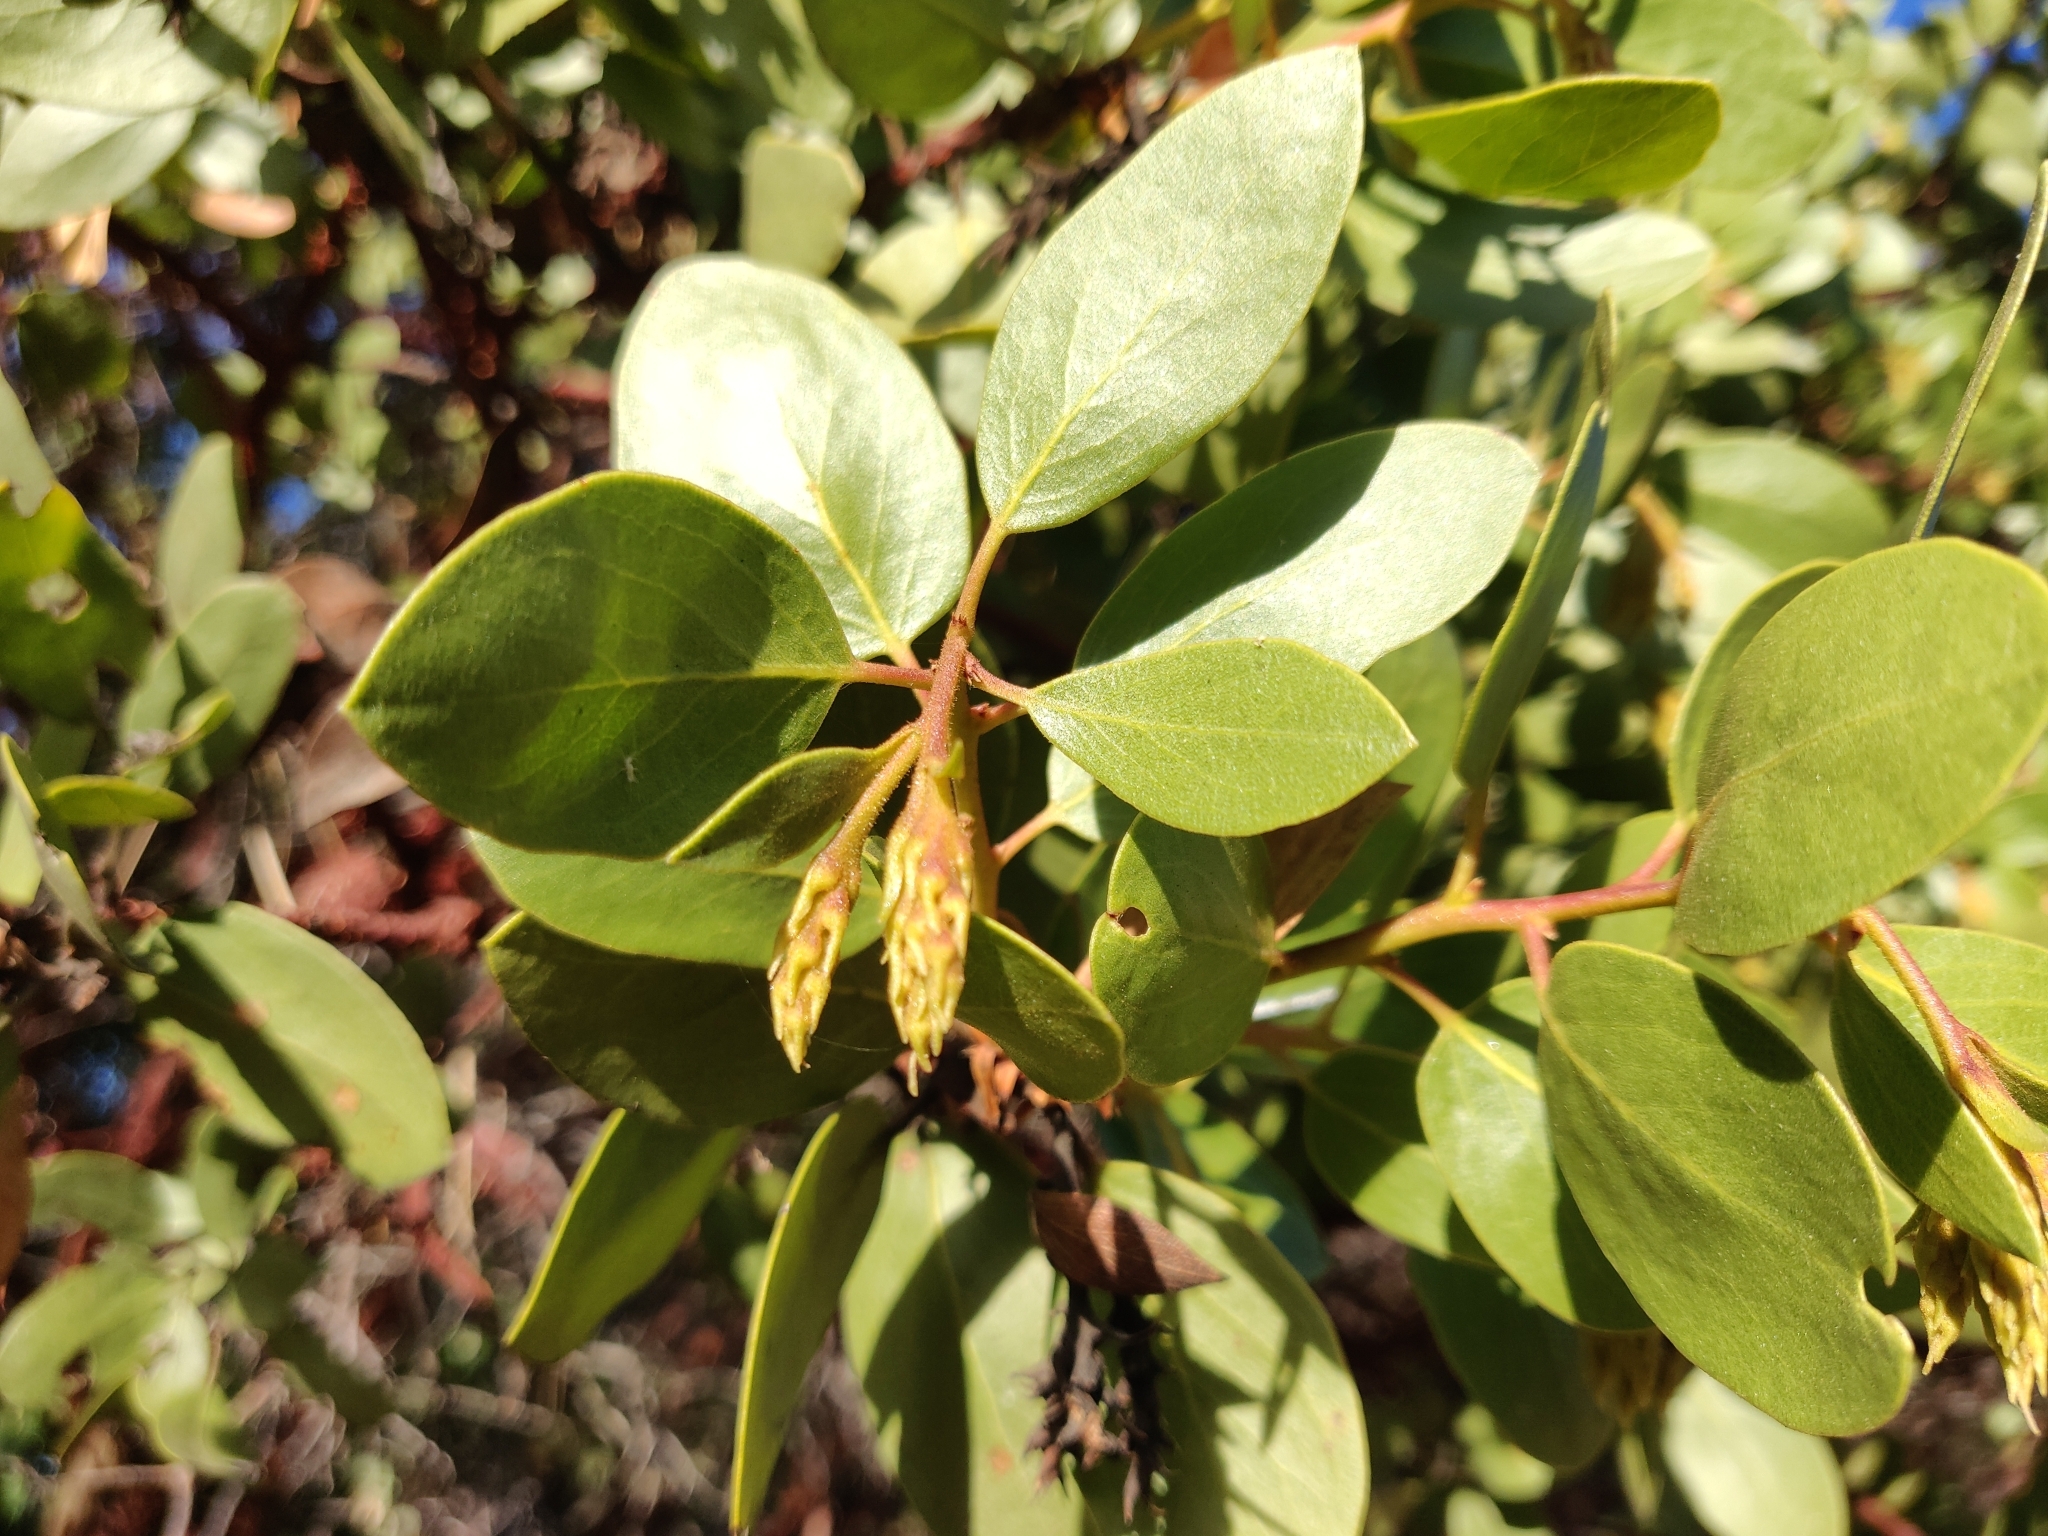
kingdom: Plantae
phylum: Tracheophyta
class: Magnoliopsida
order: Ericales
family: Ericaceae
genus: Arctostaphylos
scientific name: Arctostaphylos patula
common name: Green-leaf manzanita
